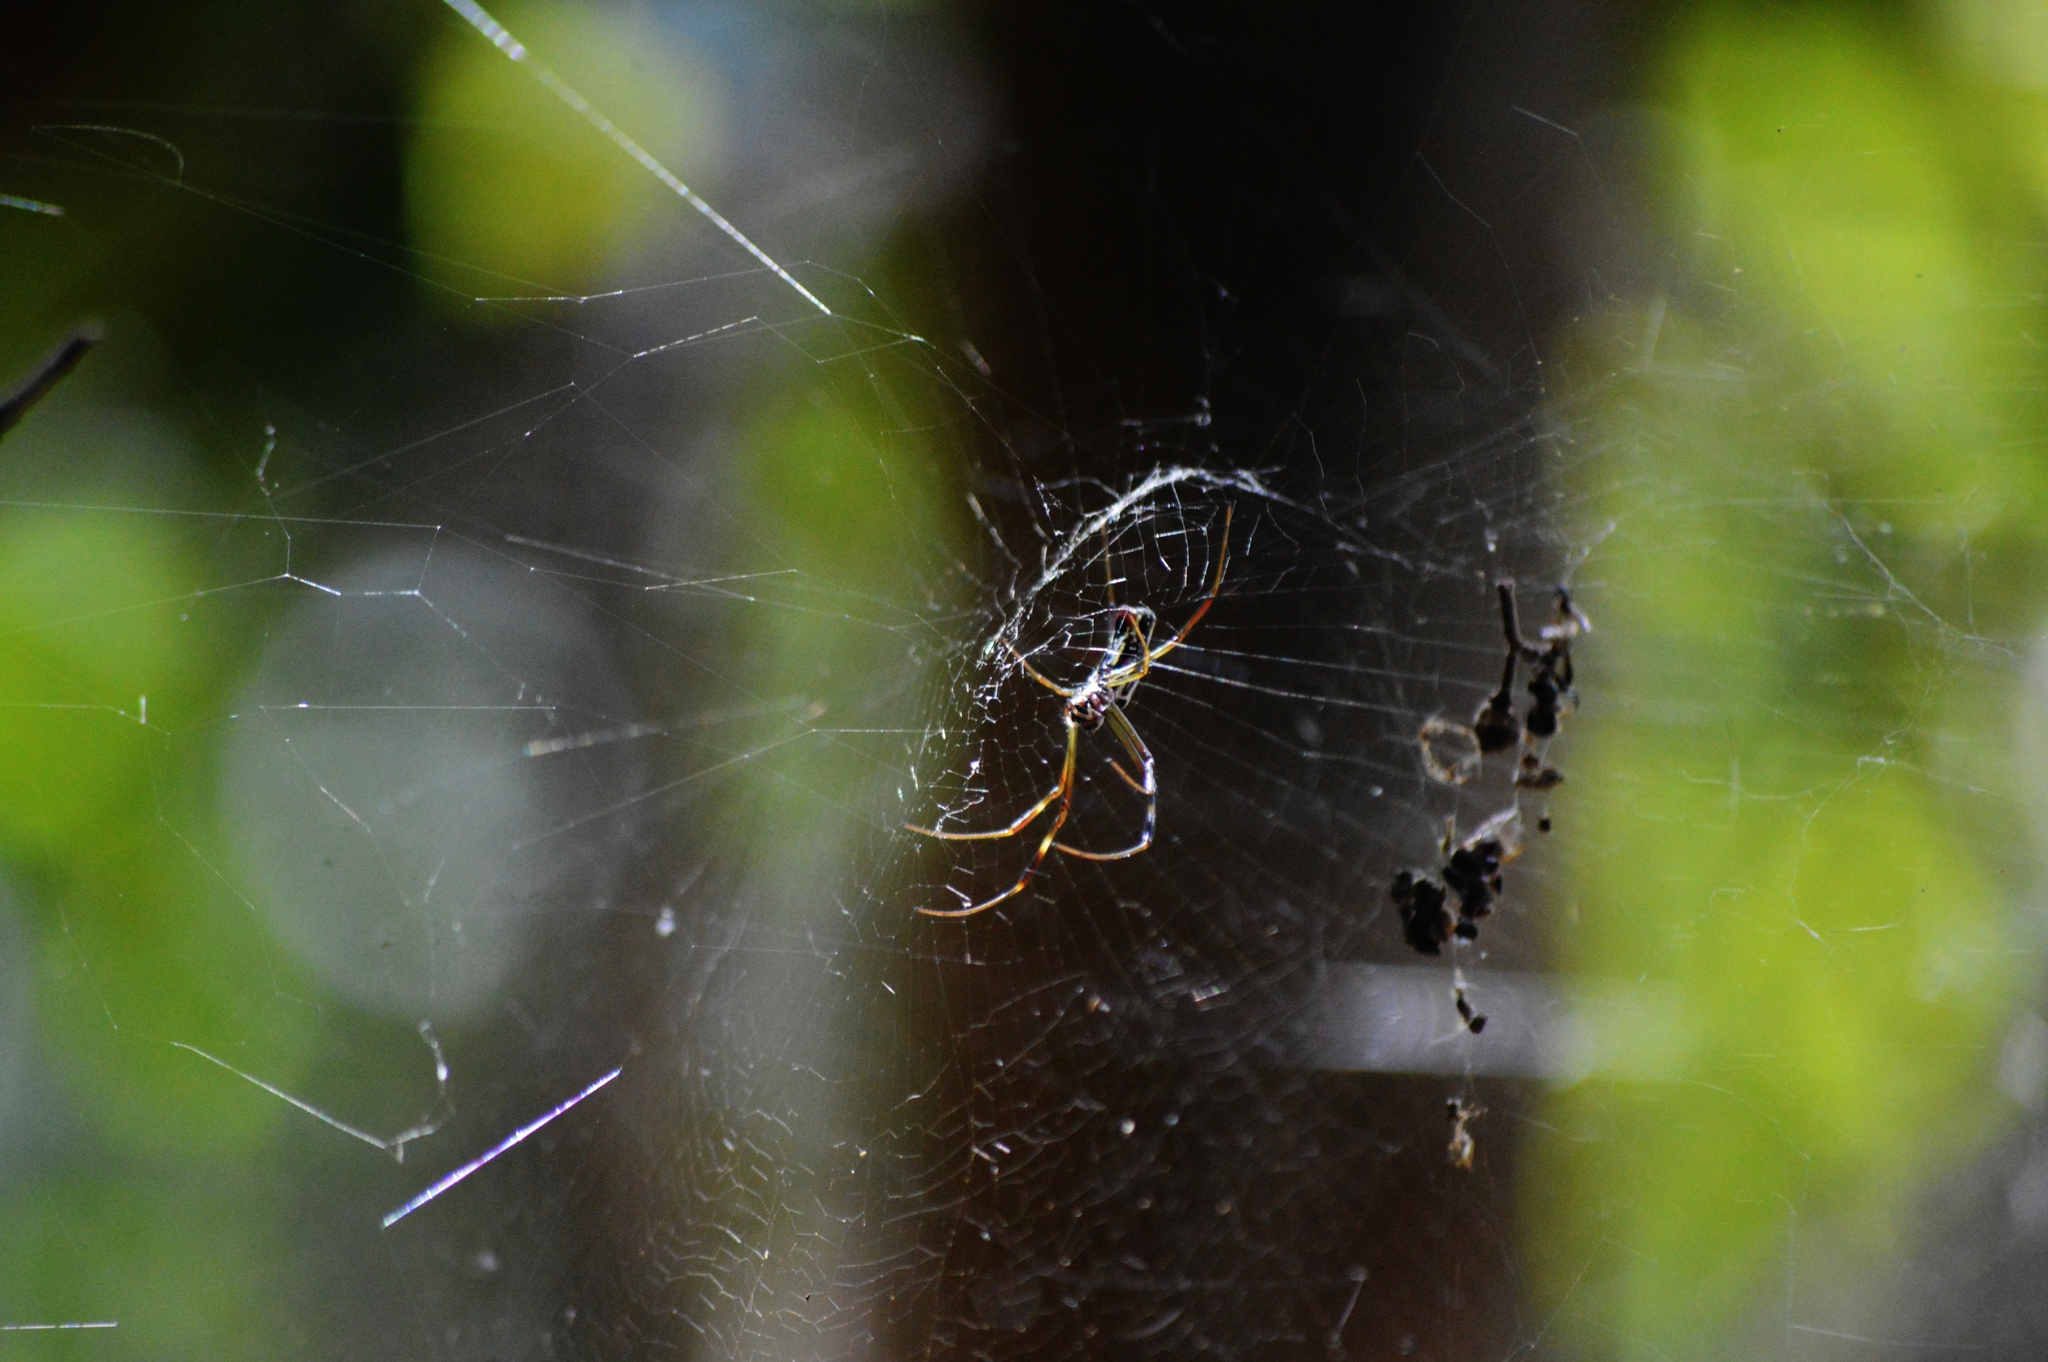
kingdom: Animalia
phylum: Arthropoda
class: Arachnida
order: Araneae
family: Araneidae
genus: Trichonephila
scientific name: Trichonephila clavipes
